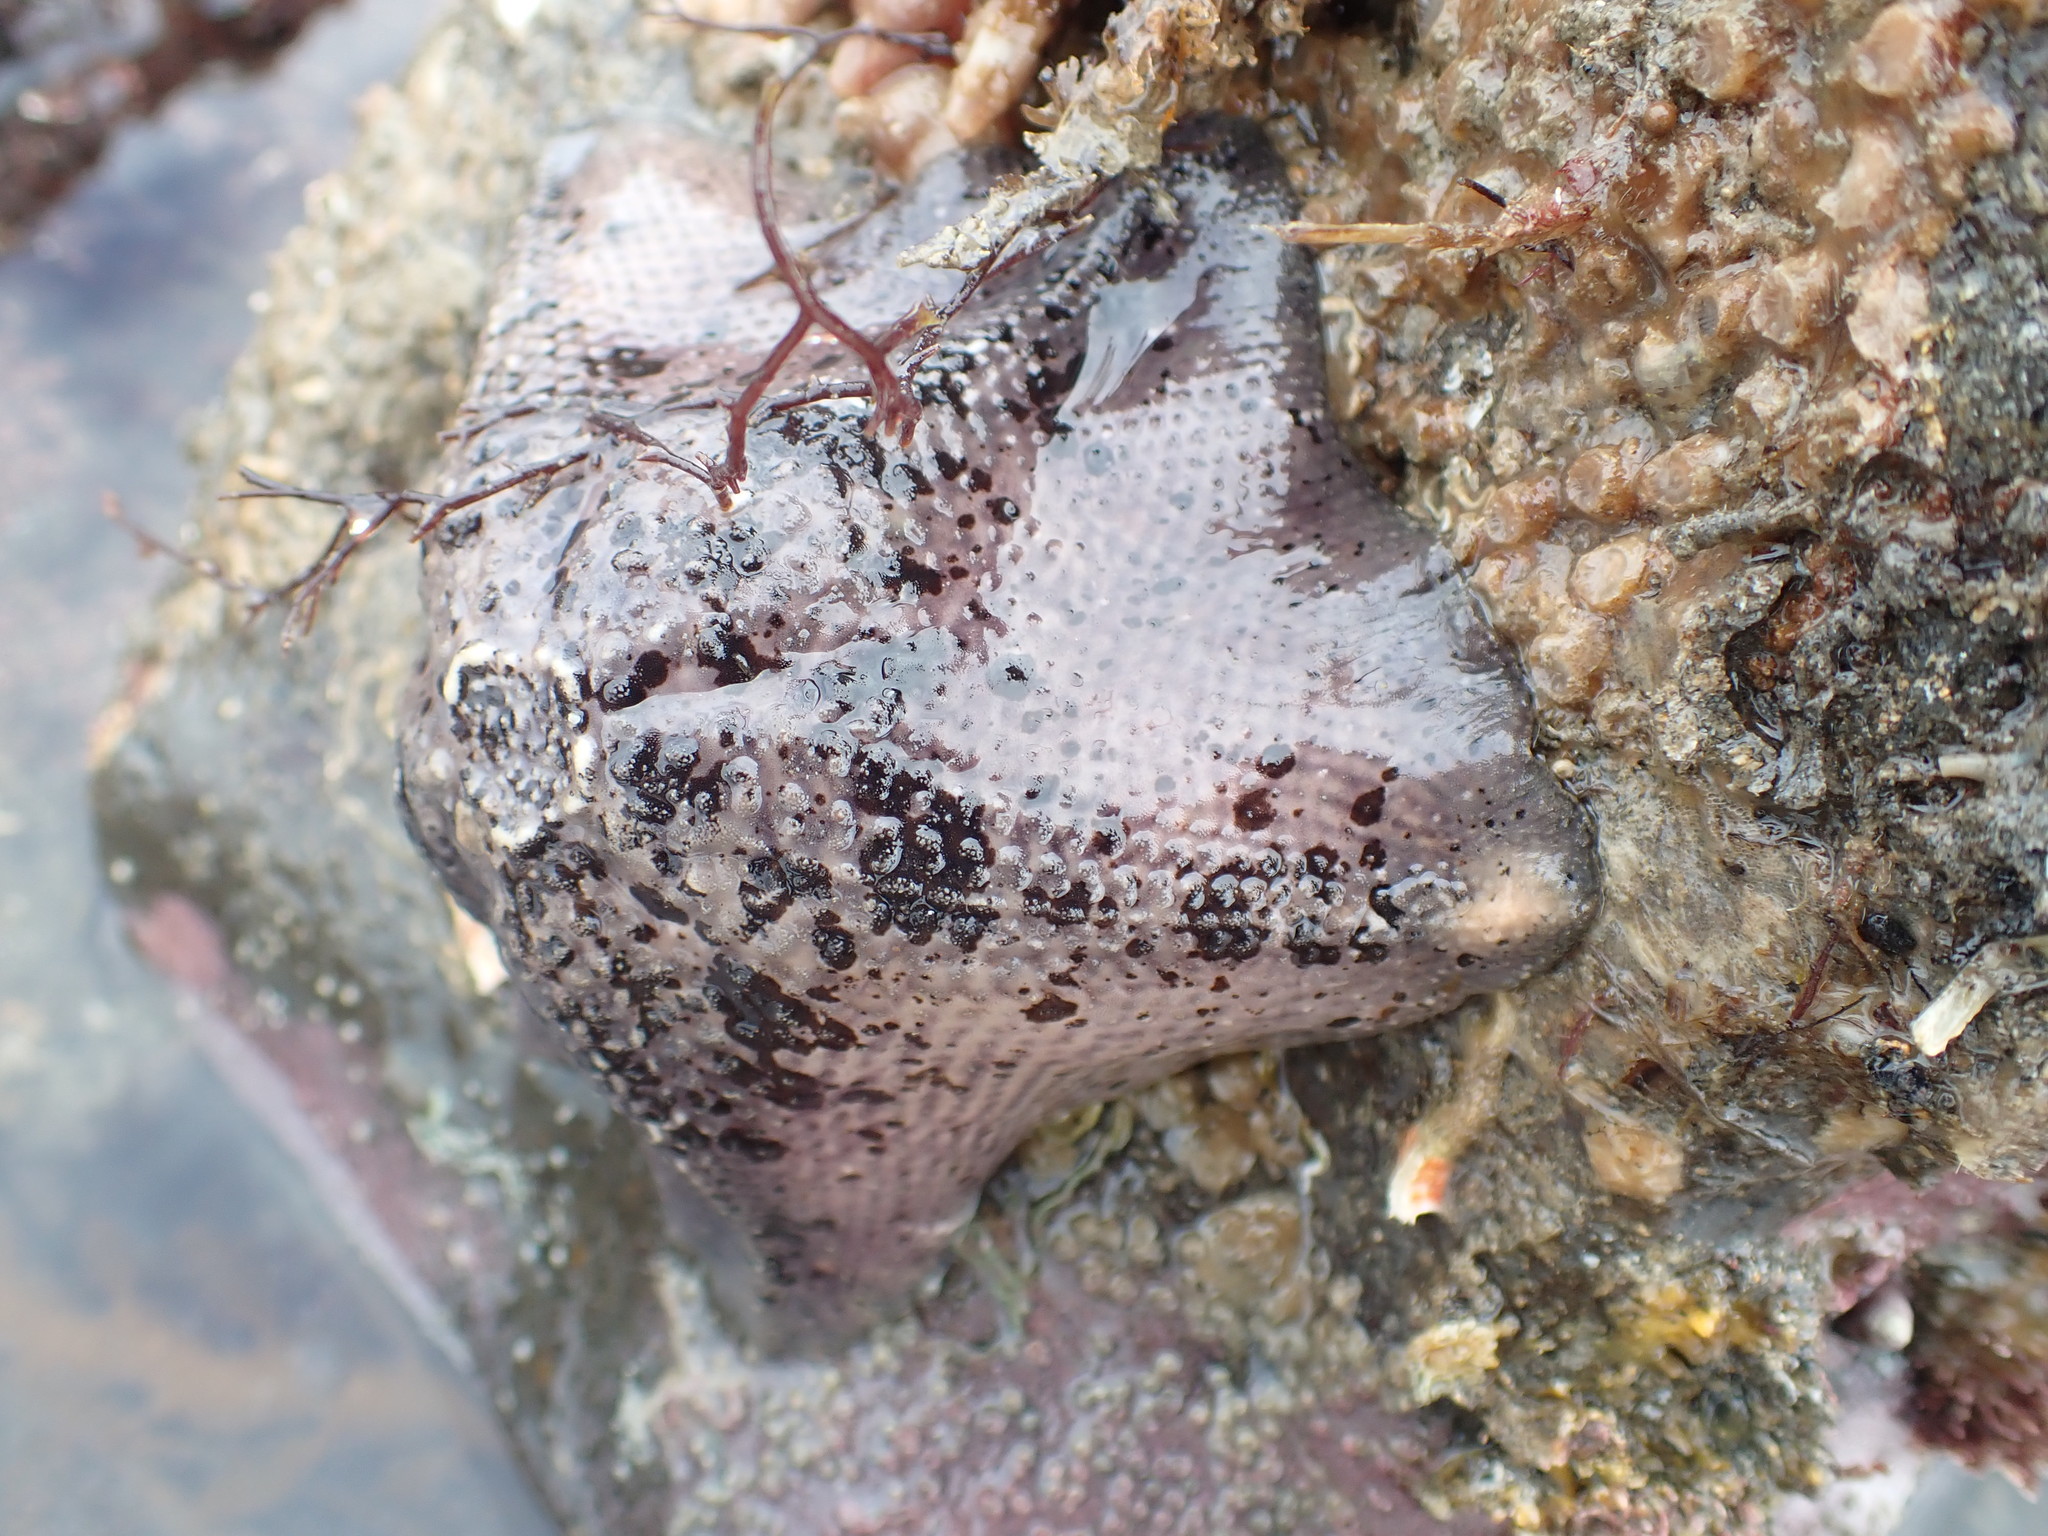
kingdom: Animalia
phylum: Echinodermata
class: Asteroidea
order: Valvatida
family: Asterinidae
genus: Stegnaster
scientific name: Stegnaster inflatus
